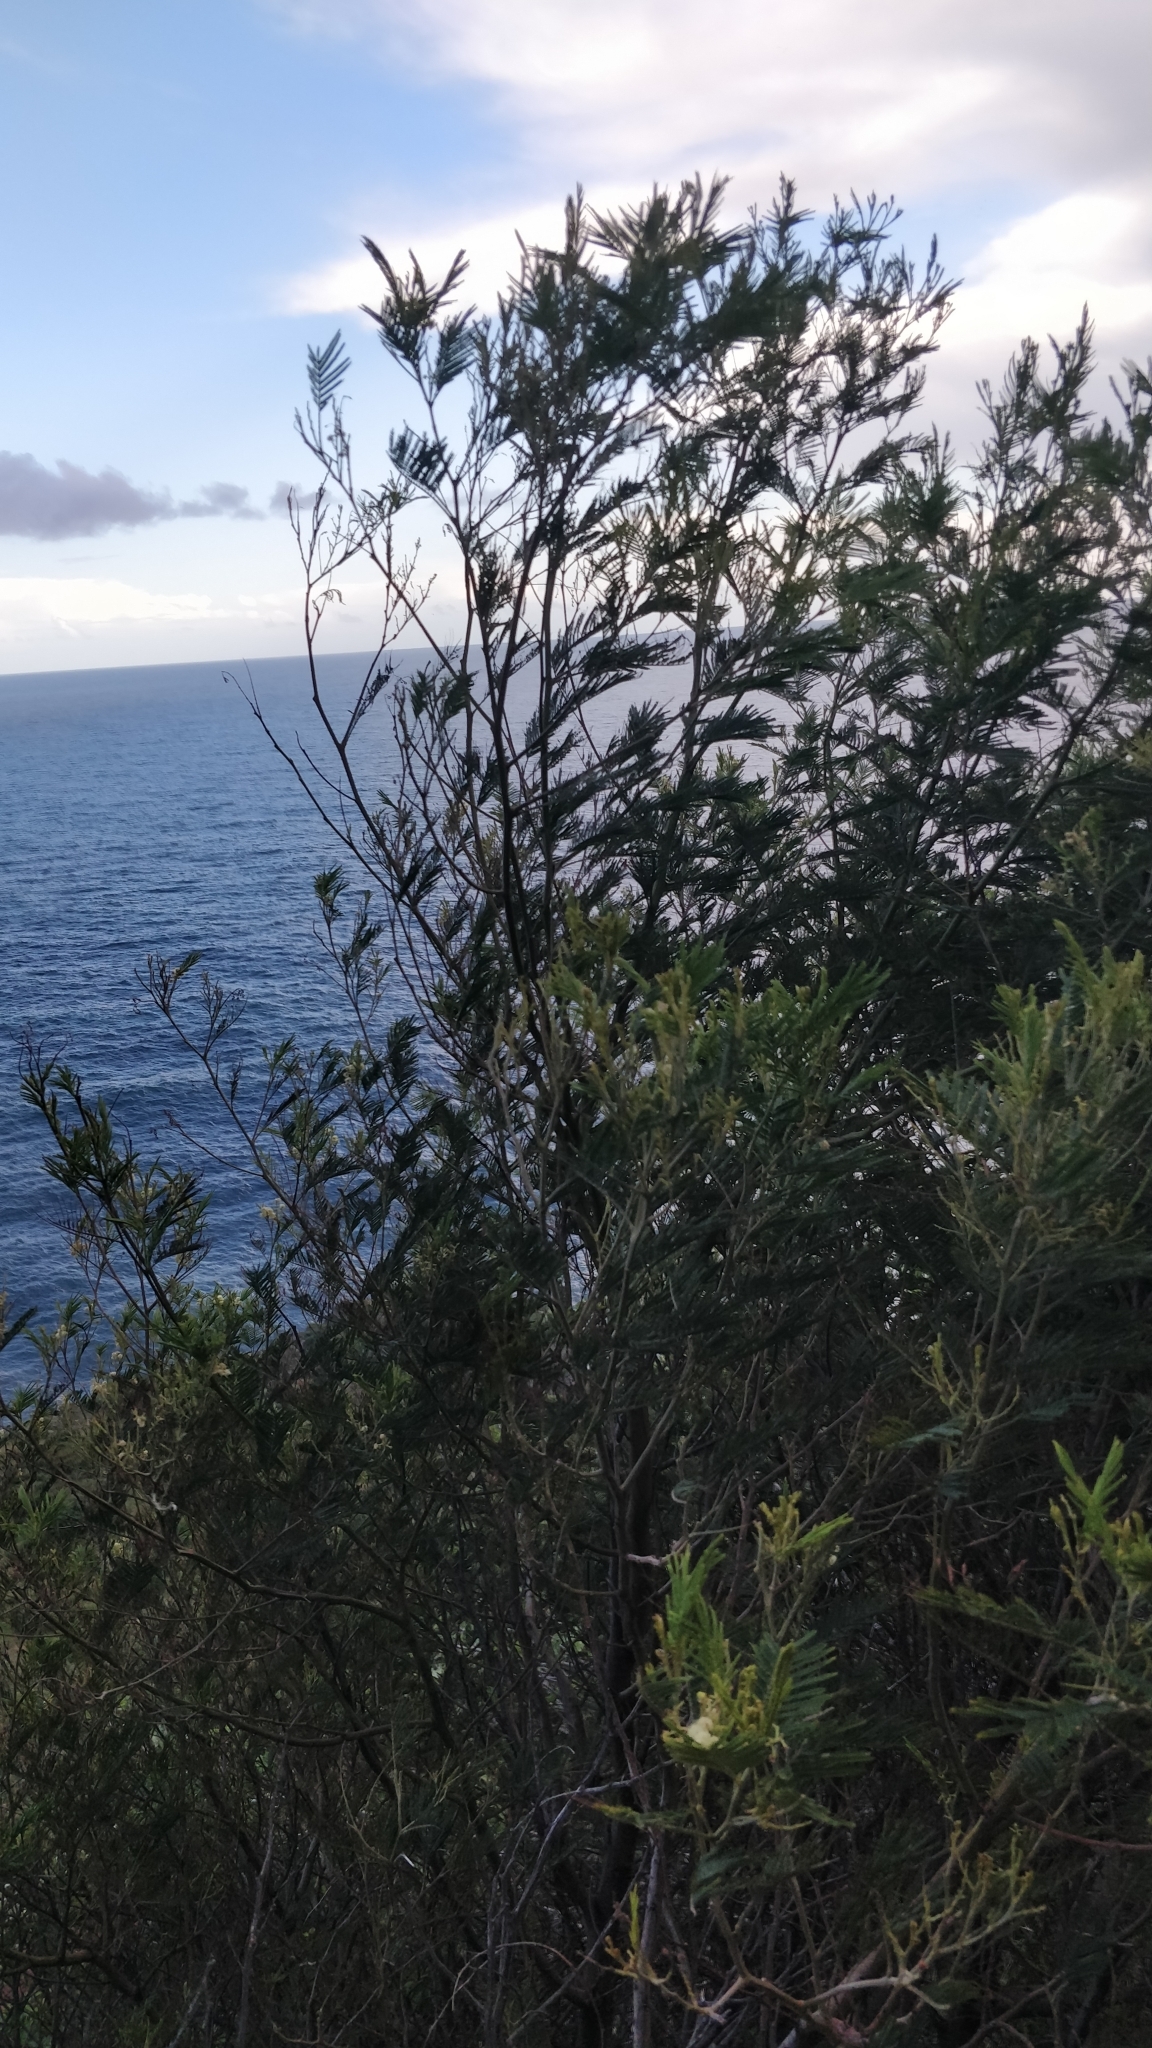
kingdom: Plantae
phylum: Tracheophyta
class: Magnoliopsida
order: Fabales
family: Fabaceae
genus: Acacia
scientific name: Acacia mearnsii
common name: Black wattle
